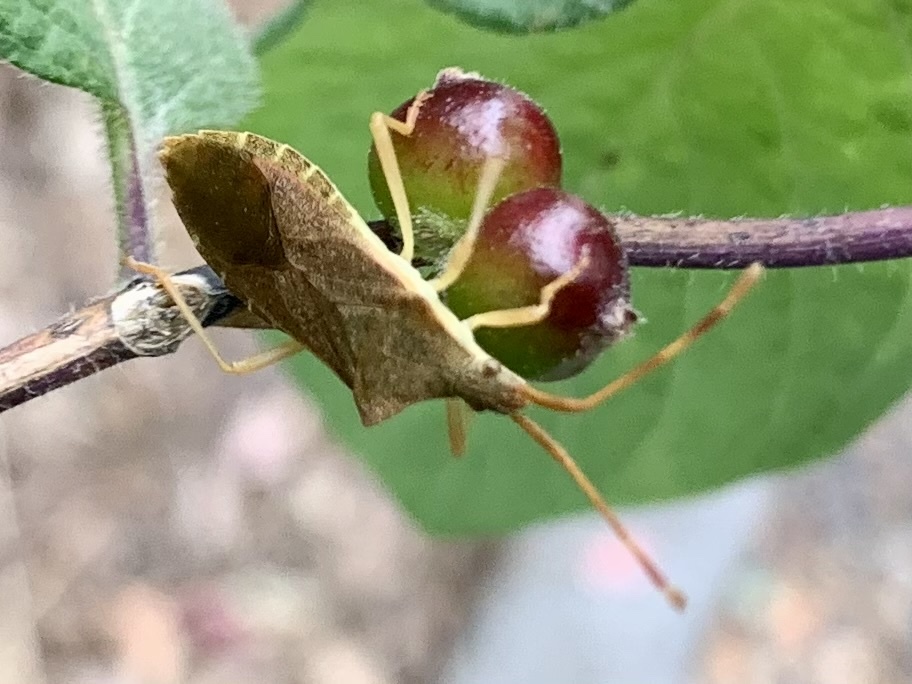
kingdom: Animalia
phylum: Arthropoda
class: Insecta
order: Hemiptera
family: Coreidae
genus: Gonocerus
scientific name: Gonocerus acuteangulatus
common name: Box bug
